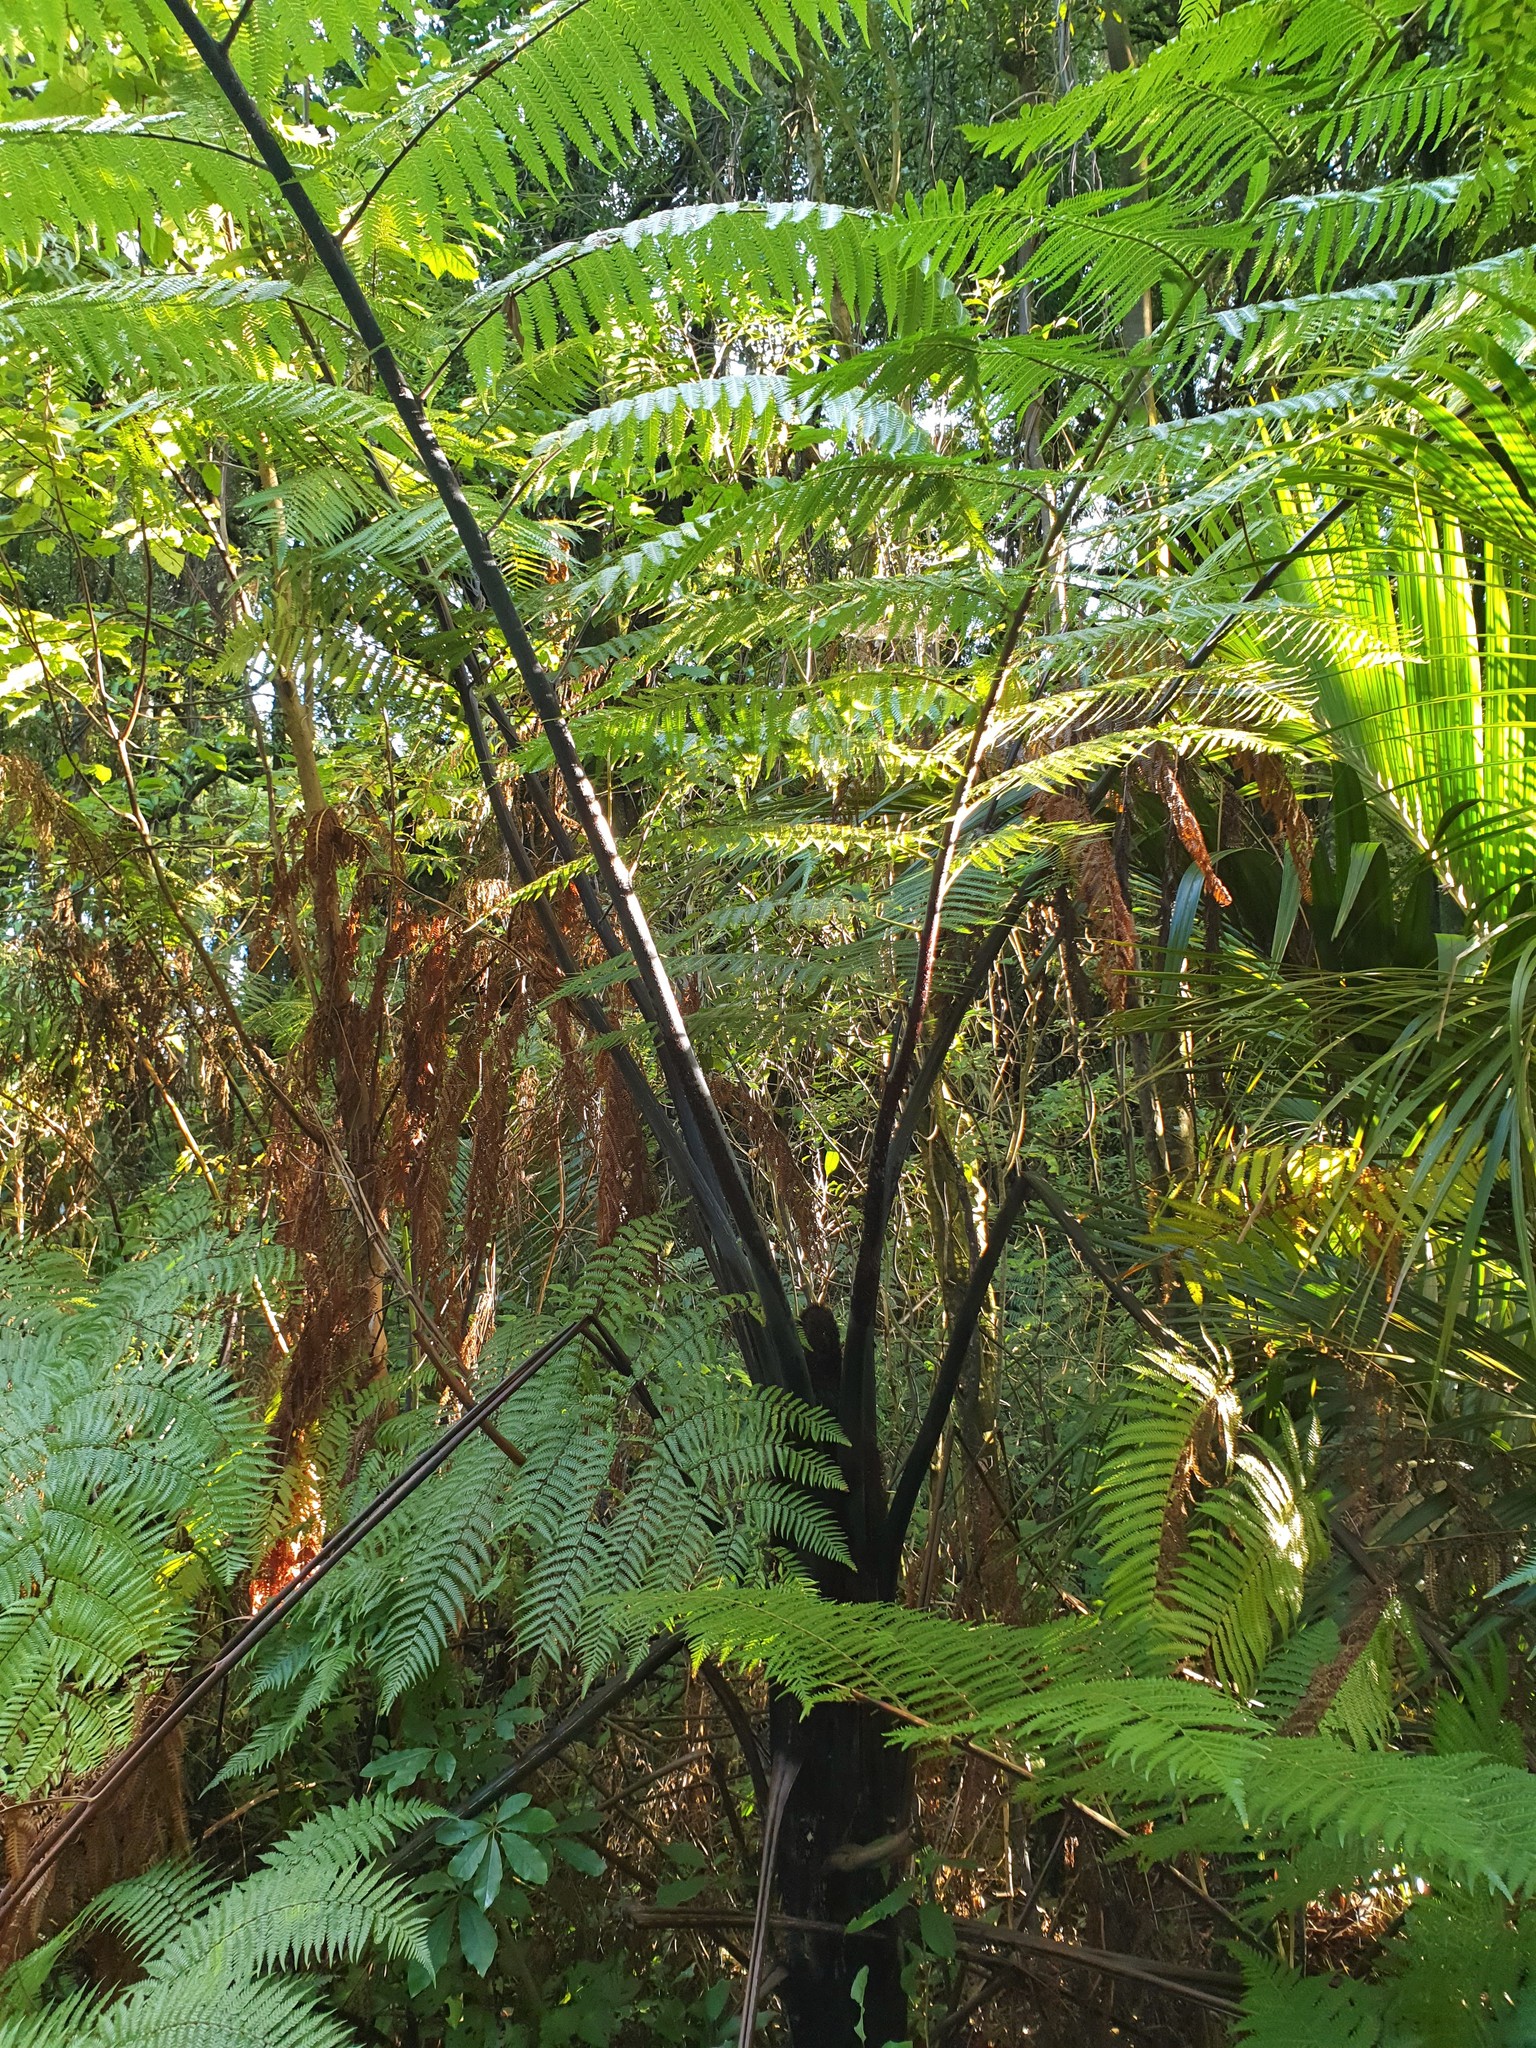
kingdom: Plantae
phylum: Tracheophyta
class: Polypodiopsida
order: Cyatheales
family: Cyatheaceae
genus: Sphaeropteris
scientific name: Sphaeropteris medullaris
